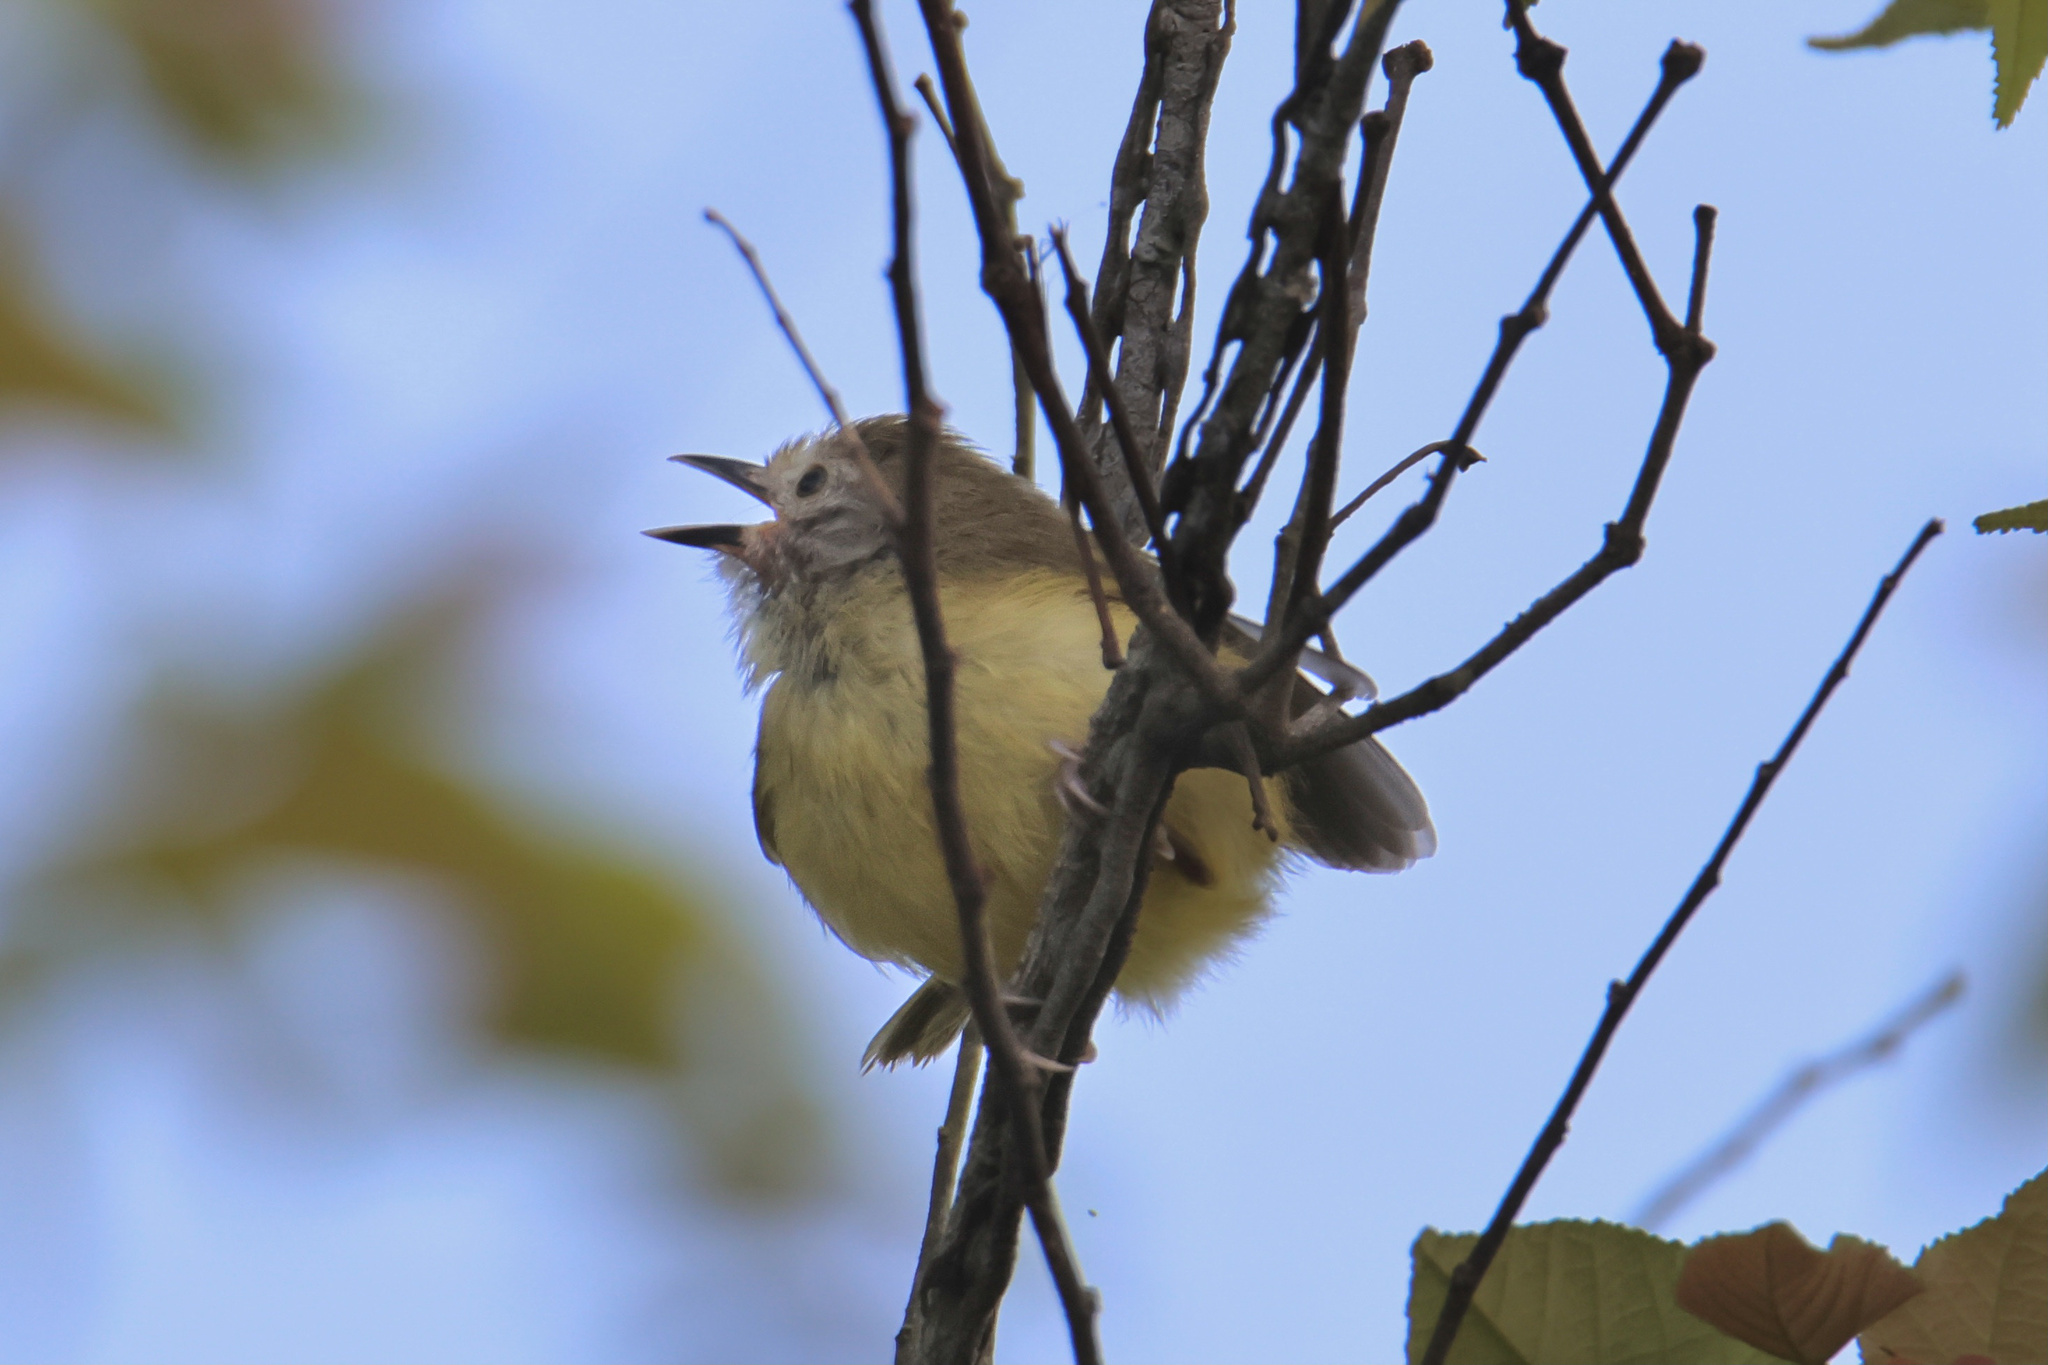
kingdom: Animalia
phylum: Chordata
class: Aves
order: Passeriformes
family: Vireonidae
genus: Hylophilus
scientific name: Hylophilus flavipes
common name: Scrub greenlet
